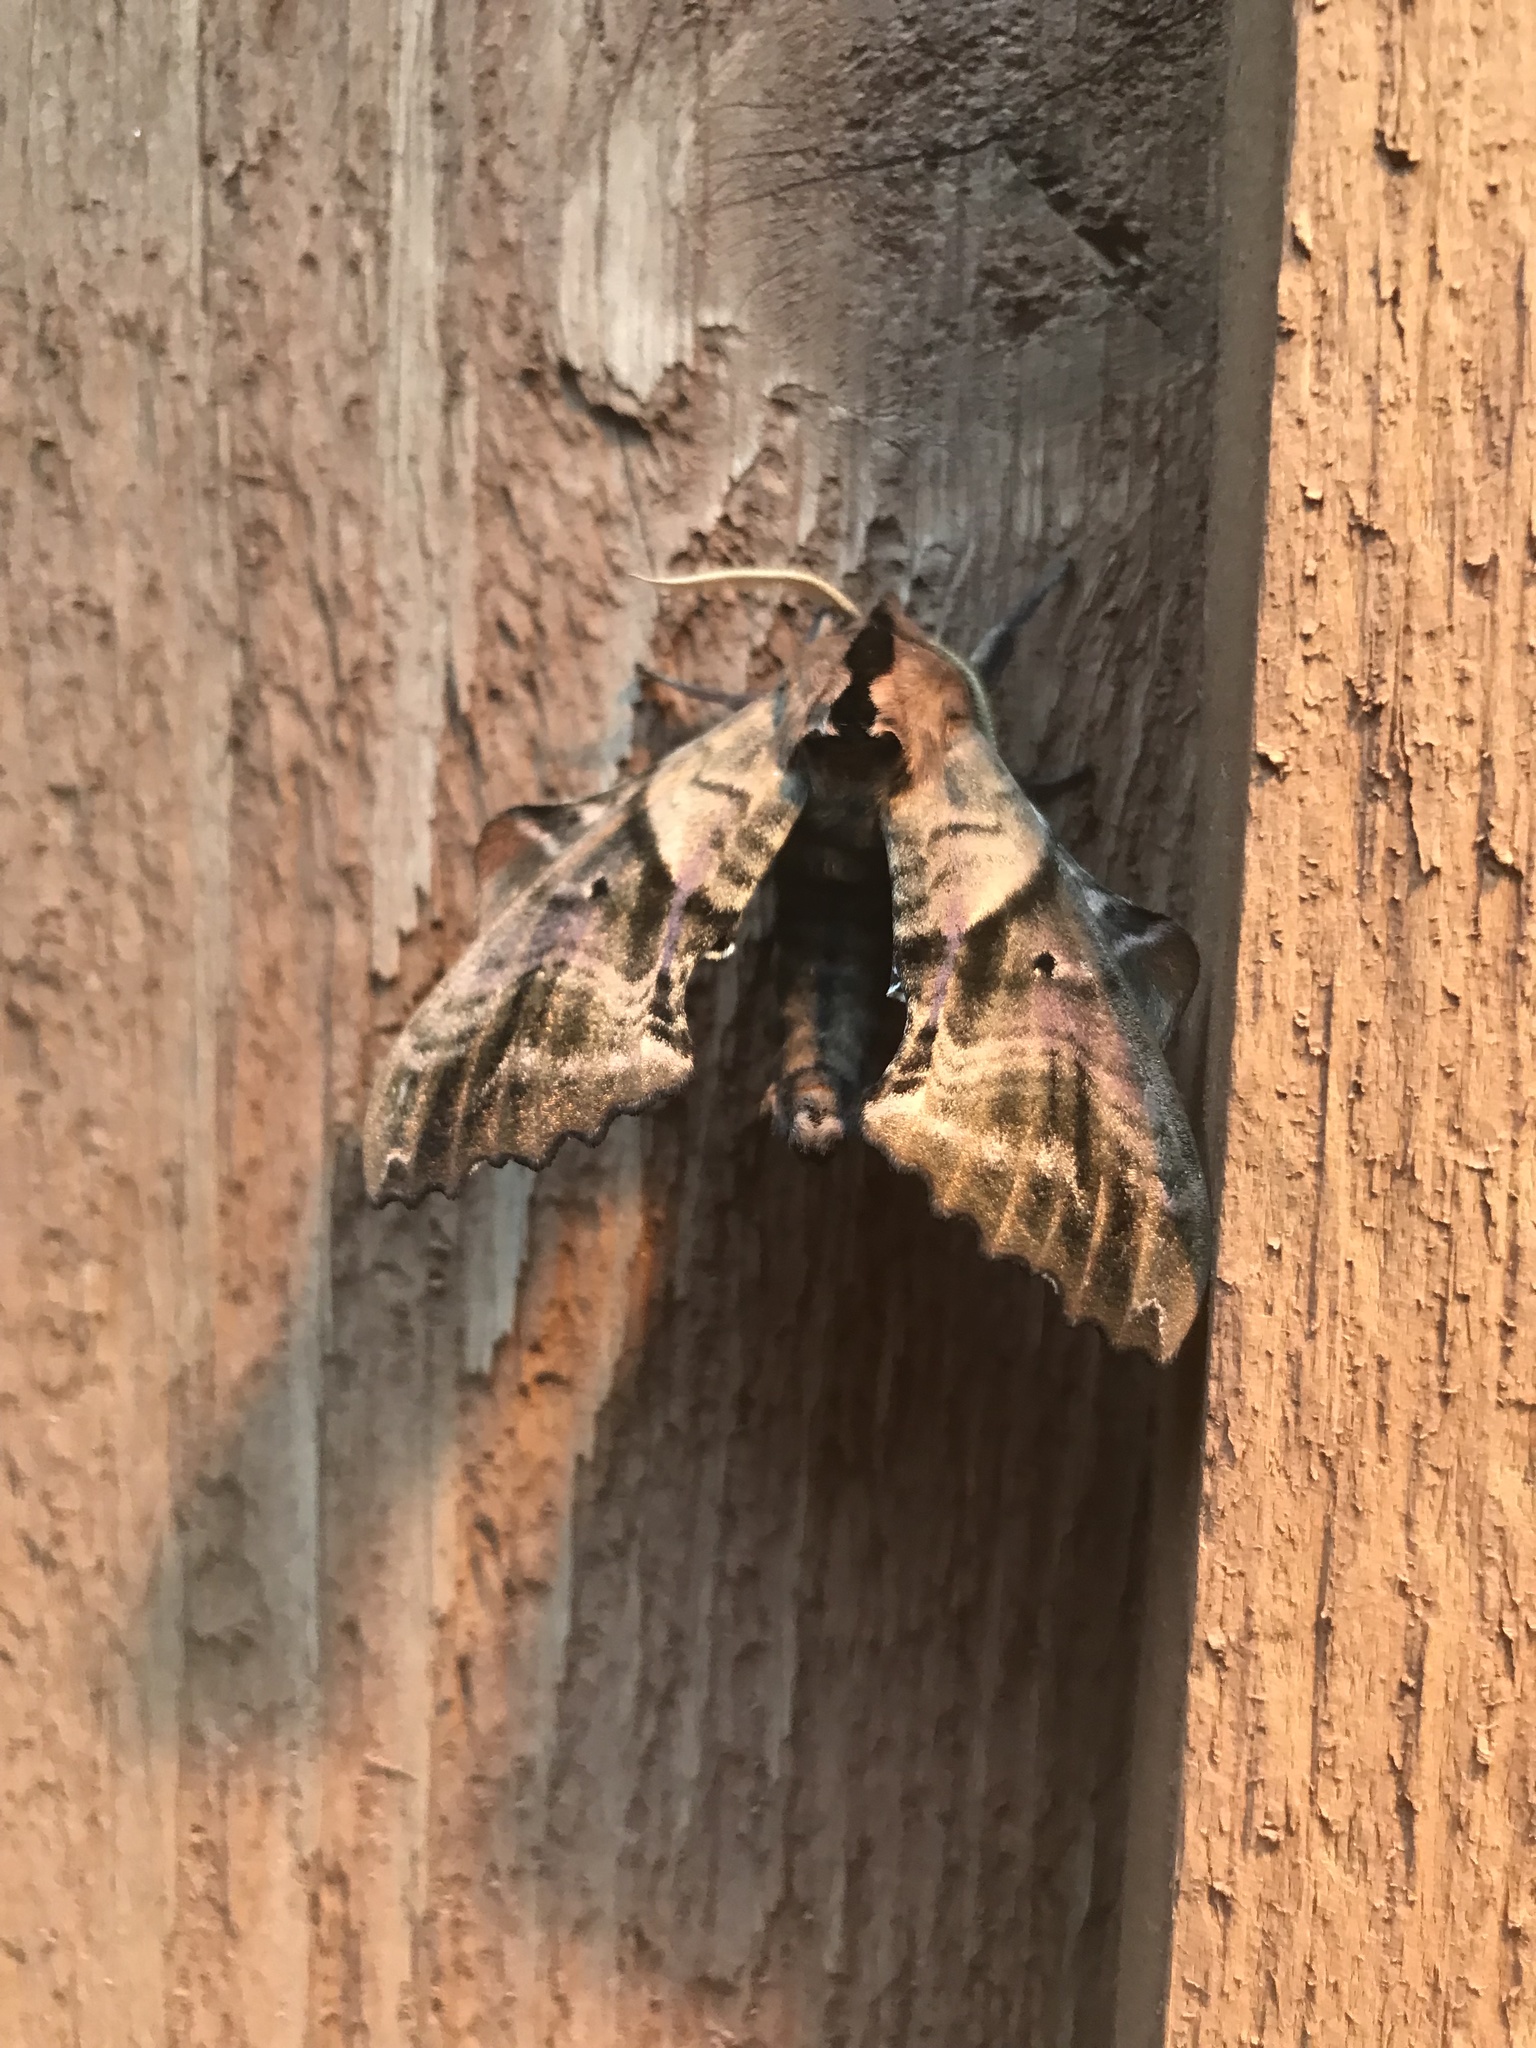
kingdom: Animalia
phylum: Arthropoda
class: Insecta
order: Lepidoptera
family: Sphingidae
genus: Paonias
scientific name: Paonias excaecata
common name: Blind-eyed sphinx
